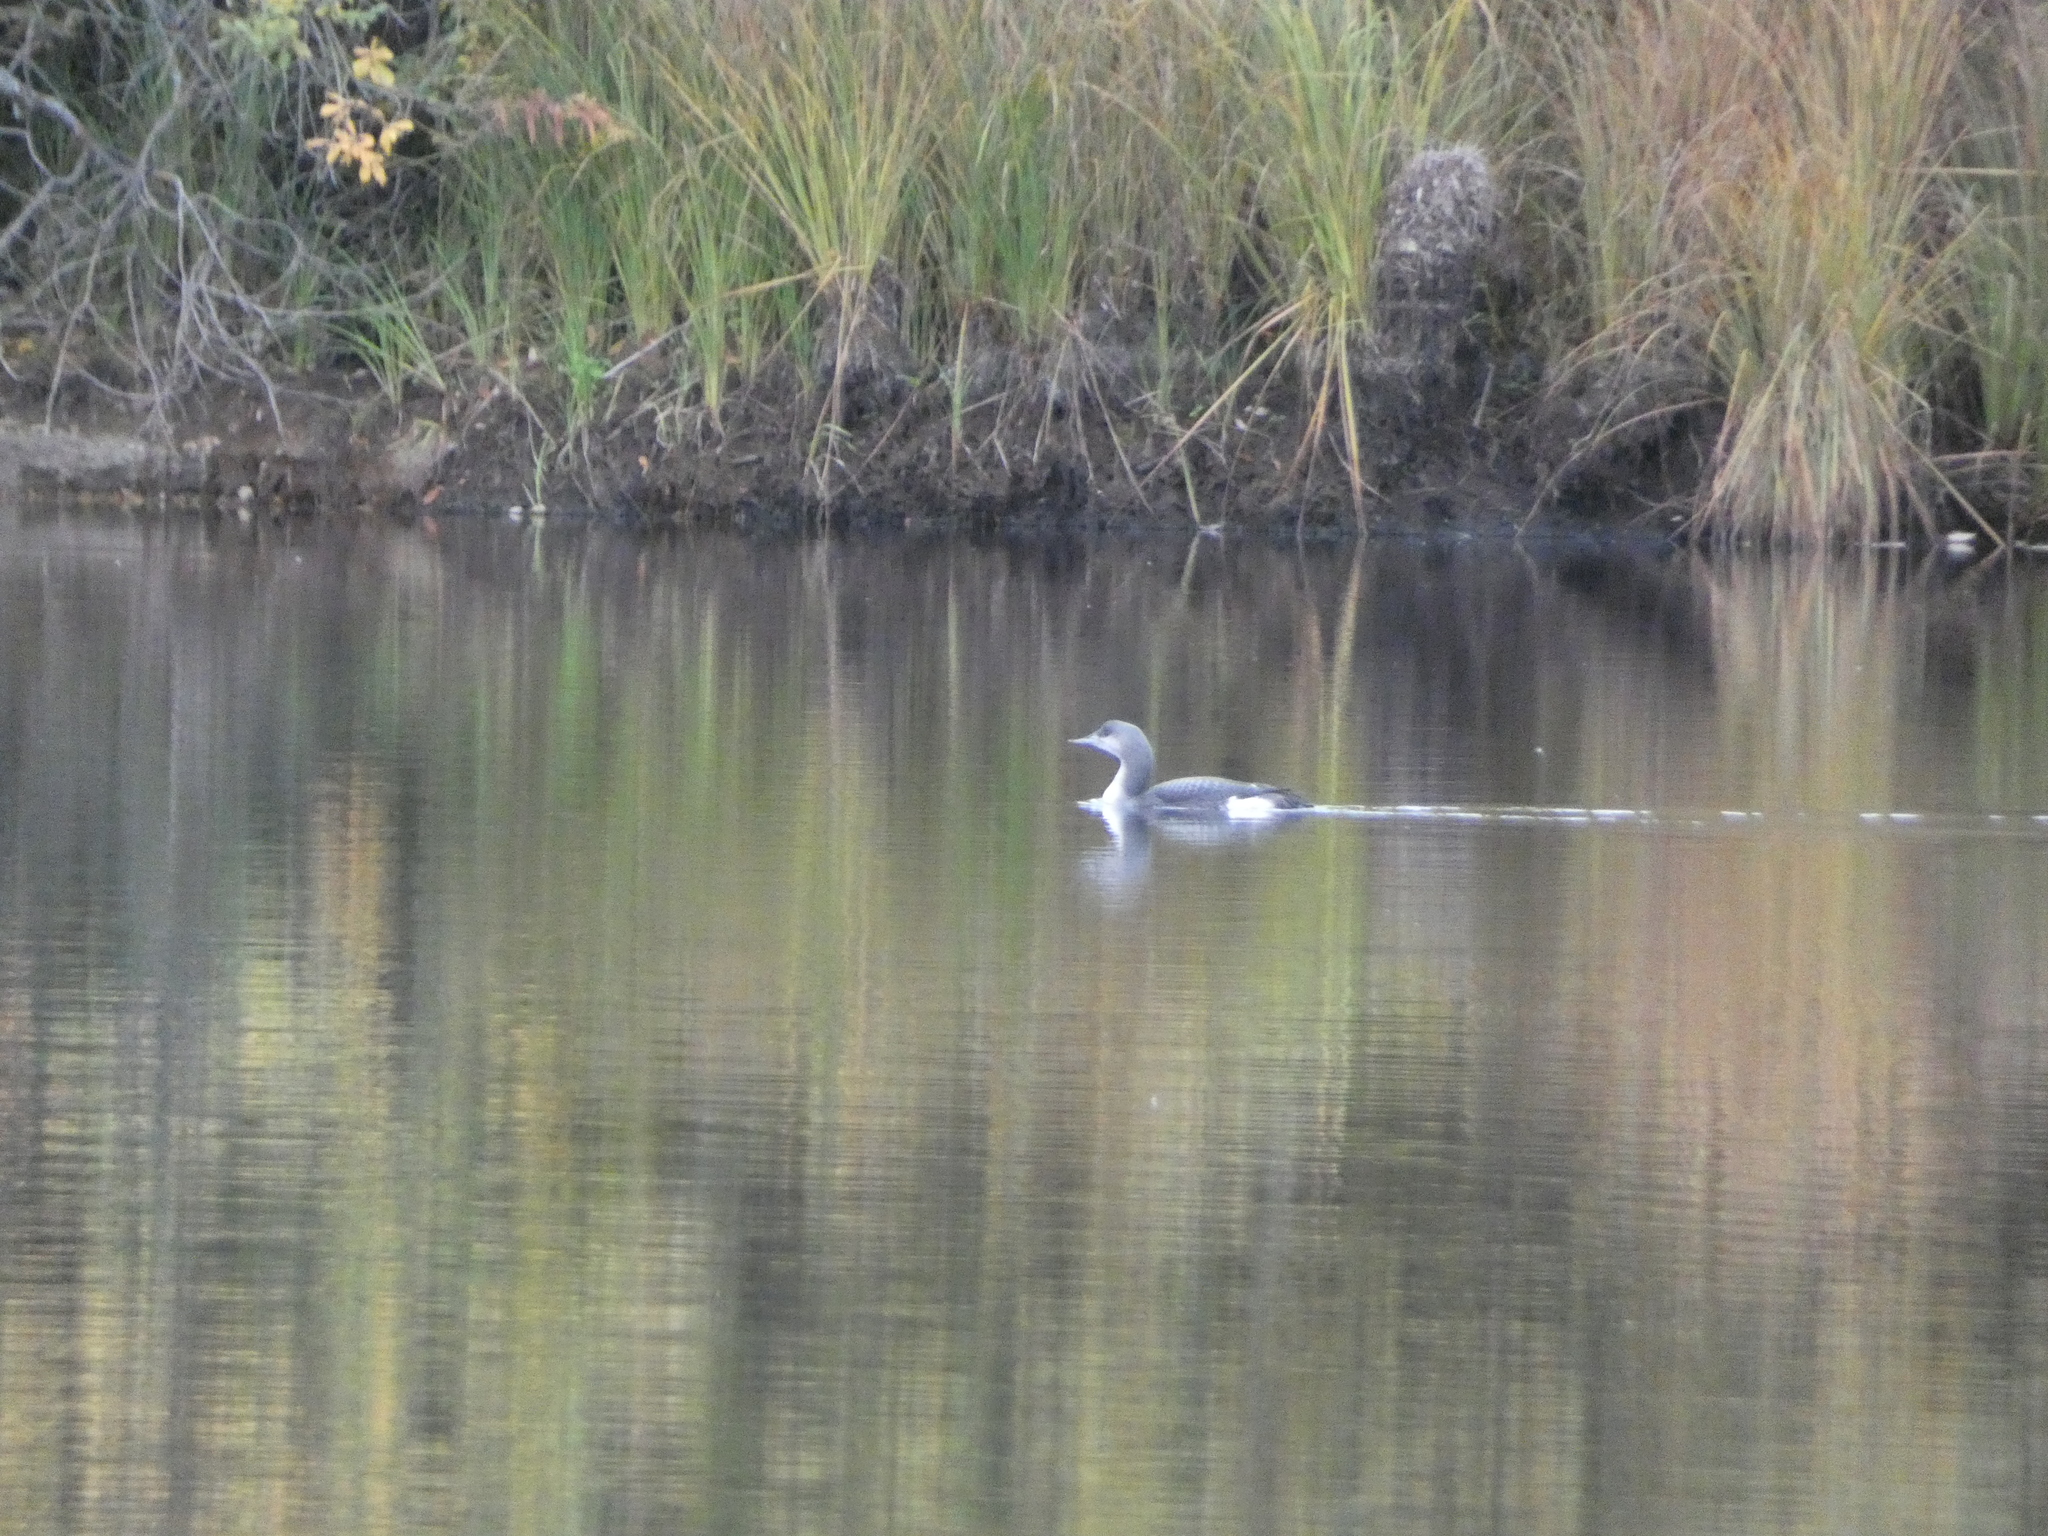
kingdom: Animalia
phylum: Chordata
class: Aves
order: Gaviiformes
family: Gaviidae
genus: Gavia
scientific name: Gavia arctica
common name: Black-throated loon
